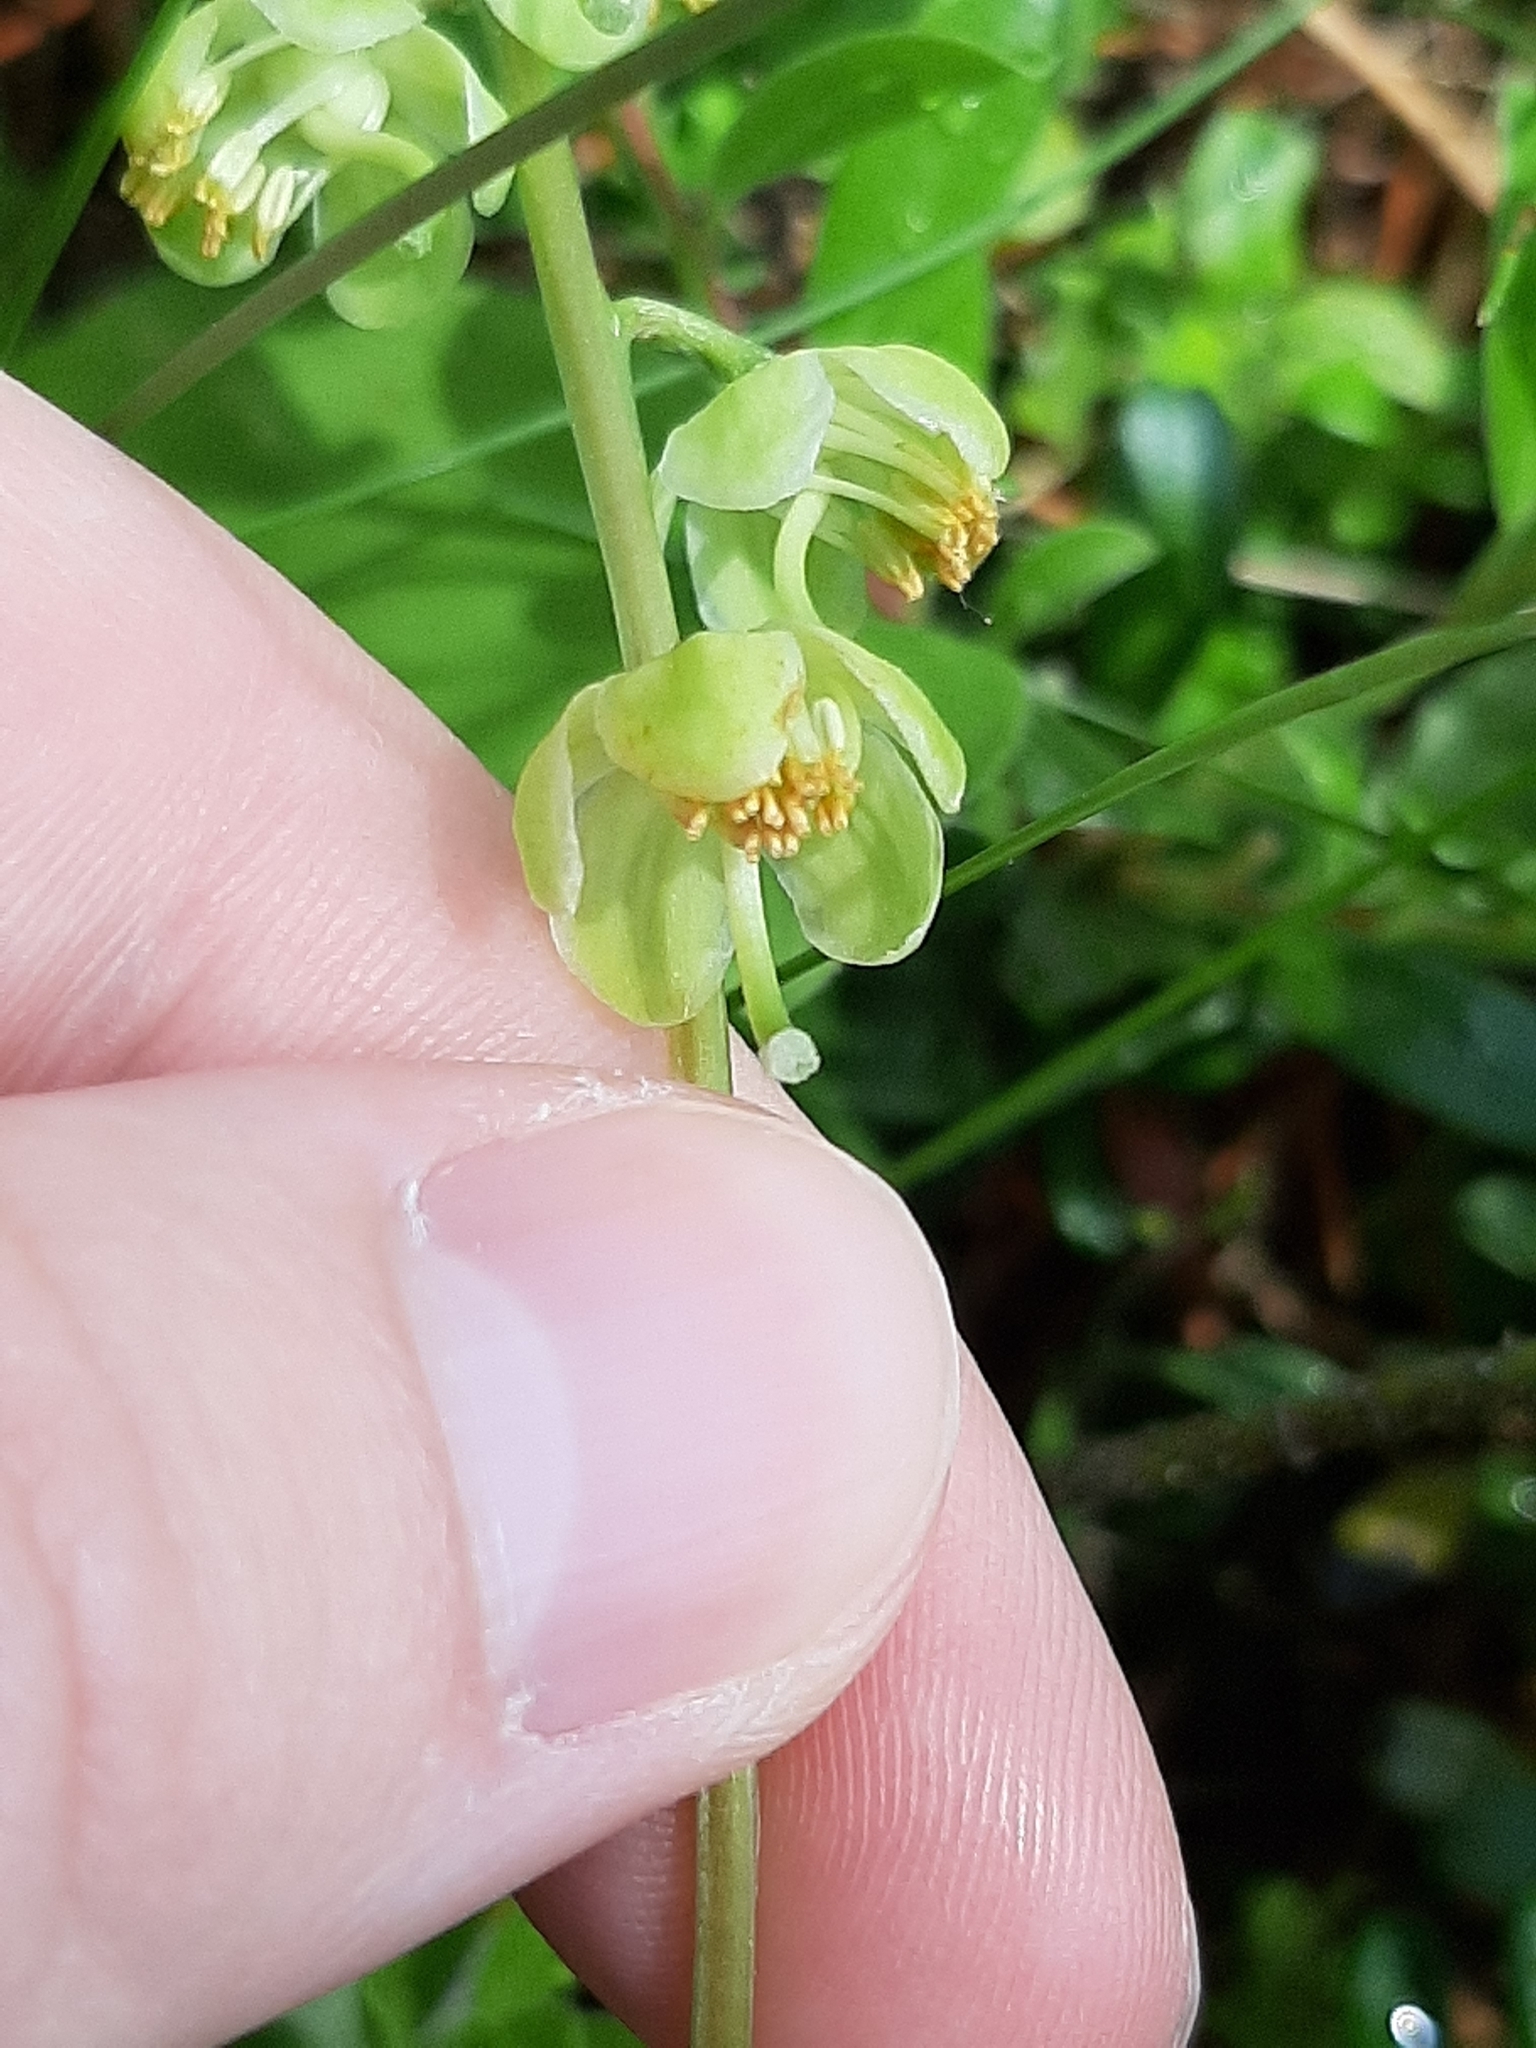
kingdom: Plantae
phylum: Tracheophyta
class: Magnoliopsida
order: Ericales
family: Ericaceae
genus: Pyrola
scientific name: Pyrola chlorantha
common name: Green wintergreen
